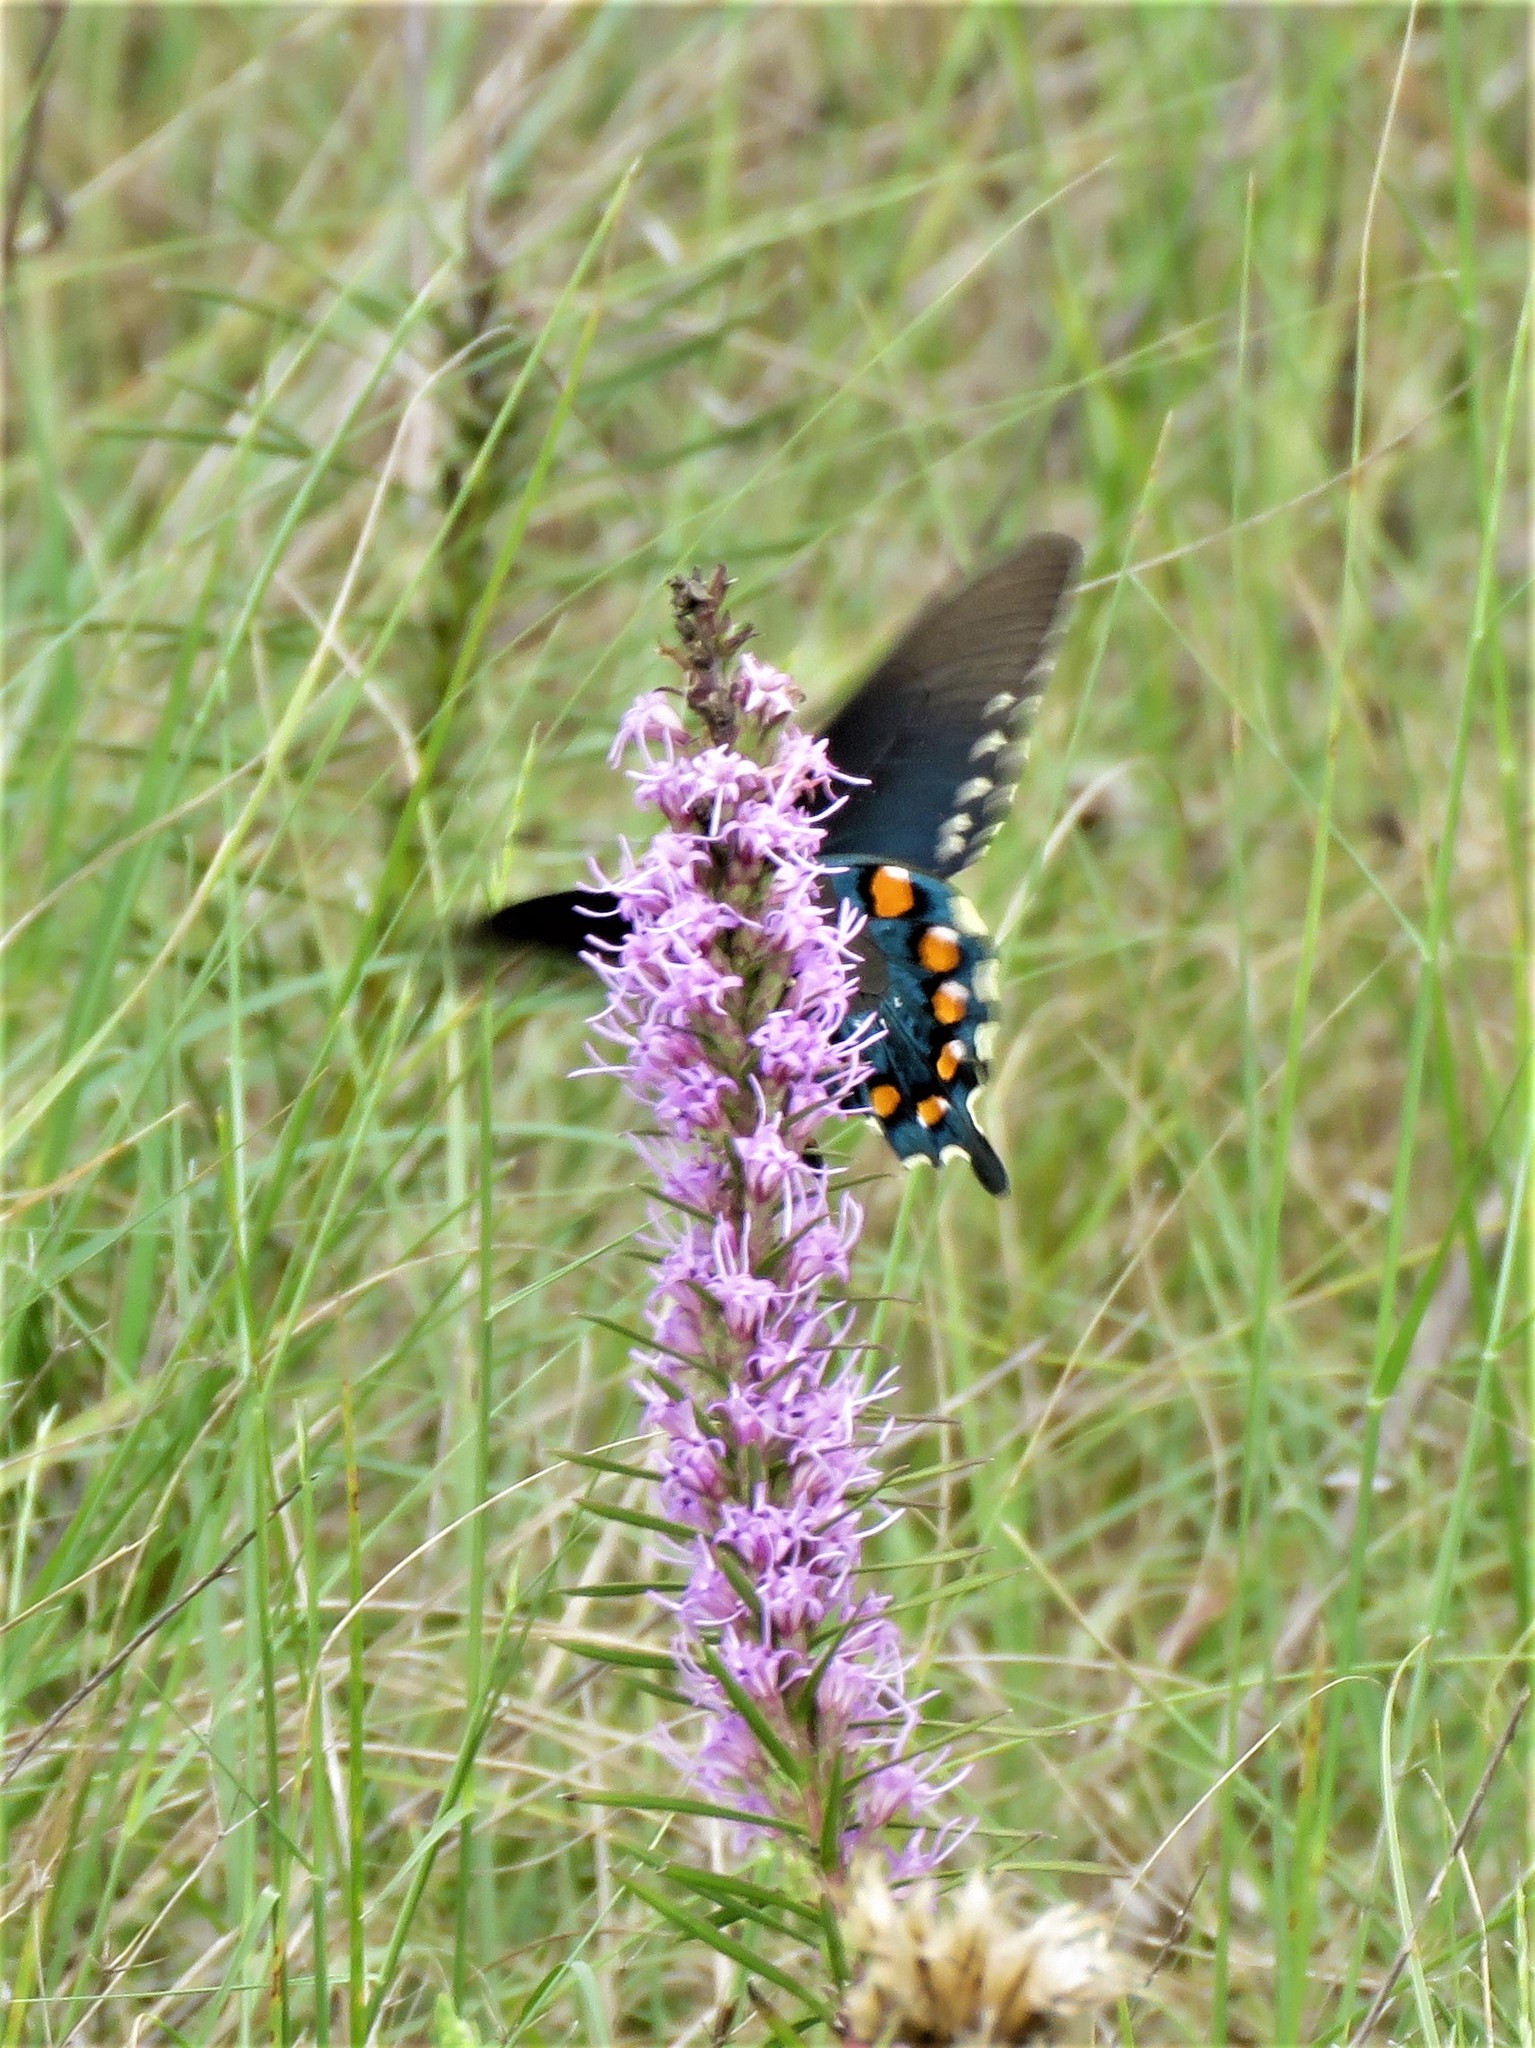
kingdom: Animalia
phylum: Arthropoda
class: Insecta
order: Lepidoptera
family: Papilionidae
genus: Battus
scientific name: Battus philenor
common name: Pipevine swallowtail
